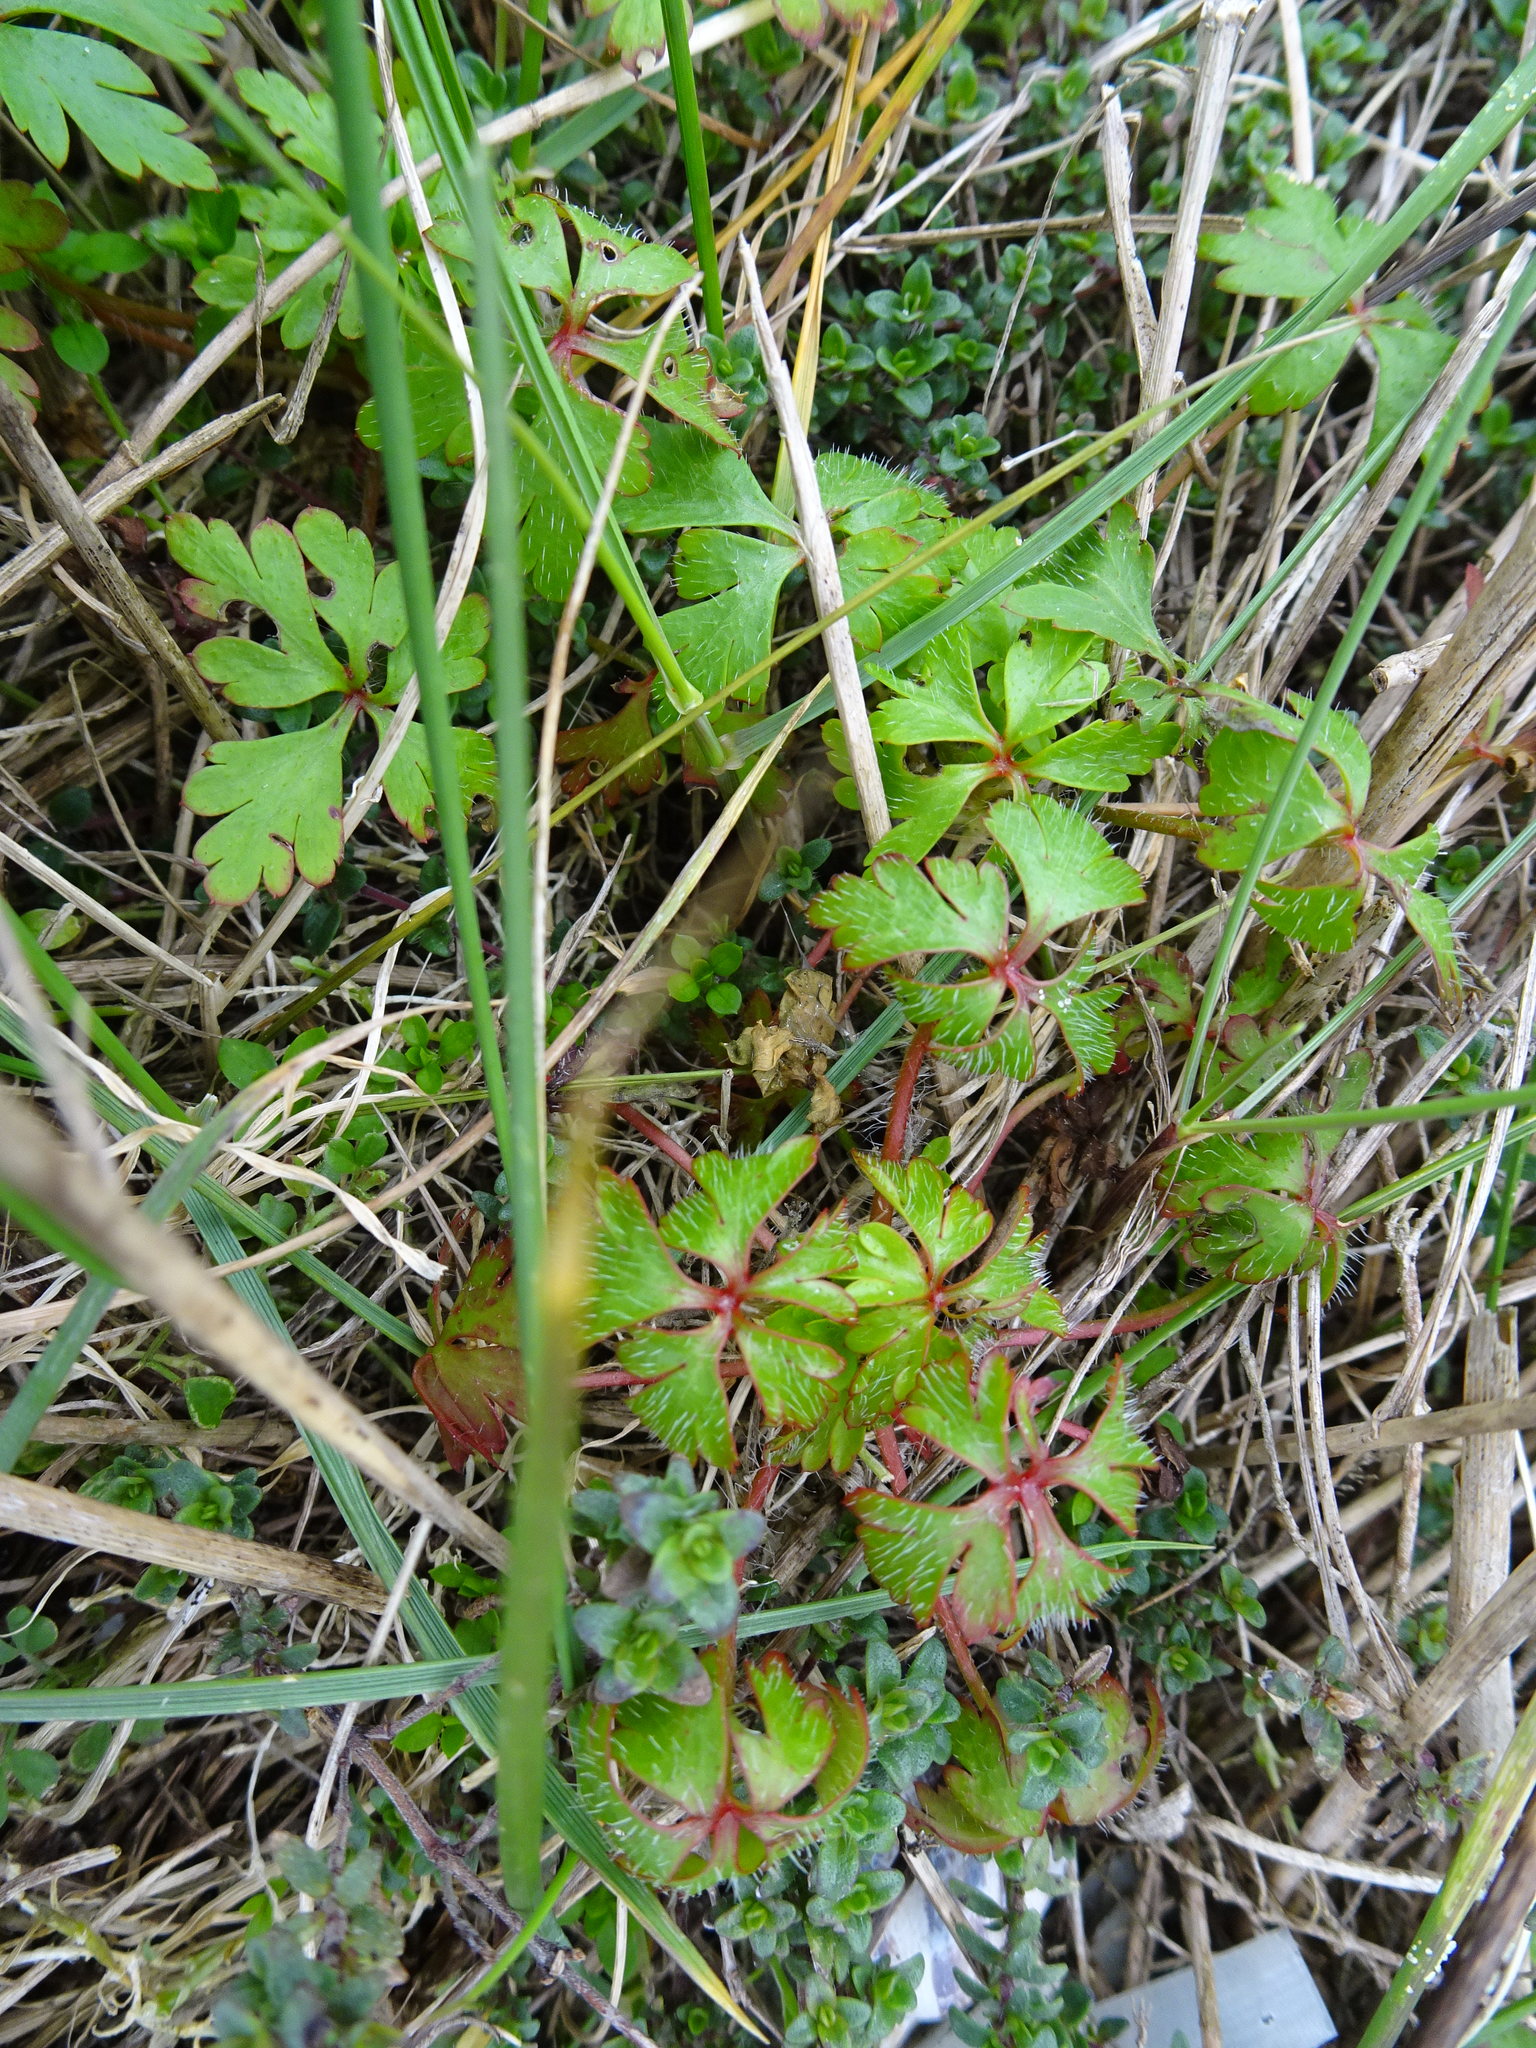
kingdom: Plantae
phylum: Tracheophyta
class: Magnoliopsida
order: Geraniales
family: Geraniaceae
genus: Geranium
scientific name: Geranium robertianum
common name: Herb-robert
